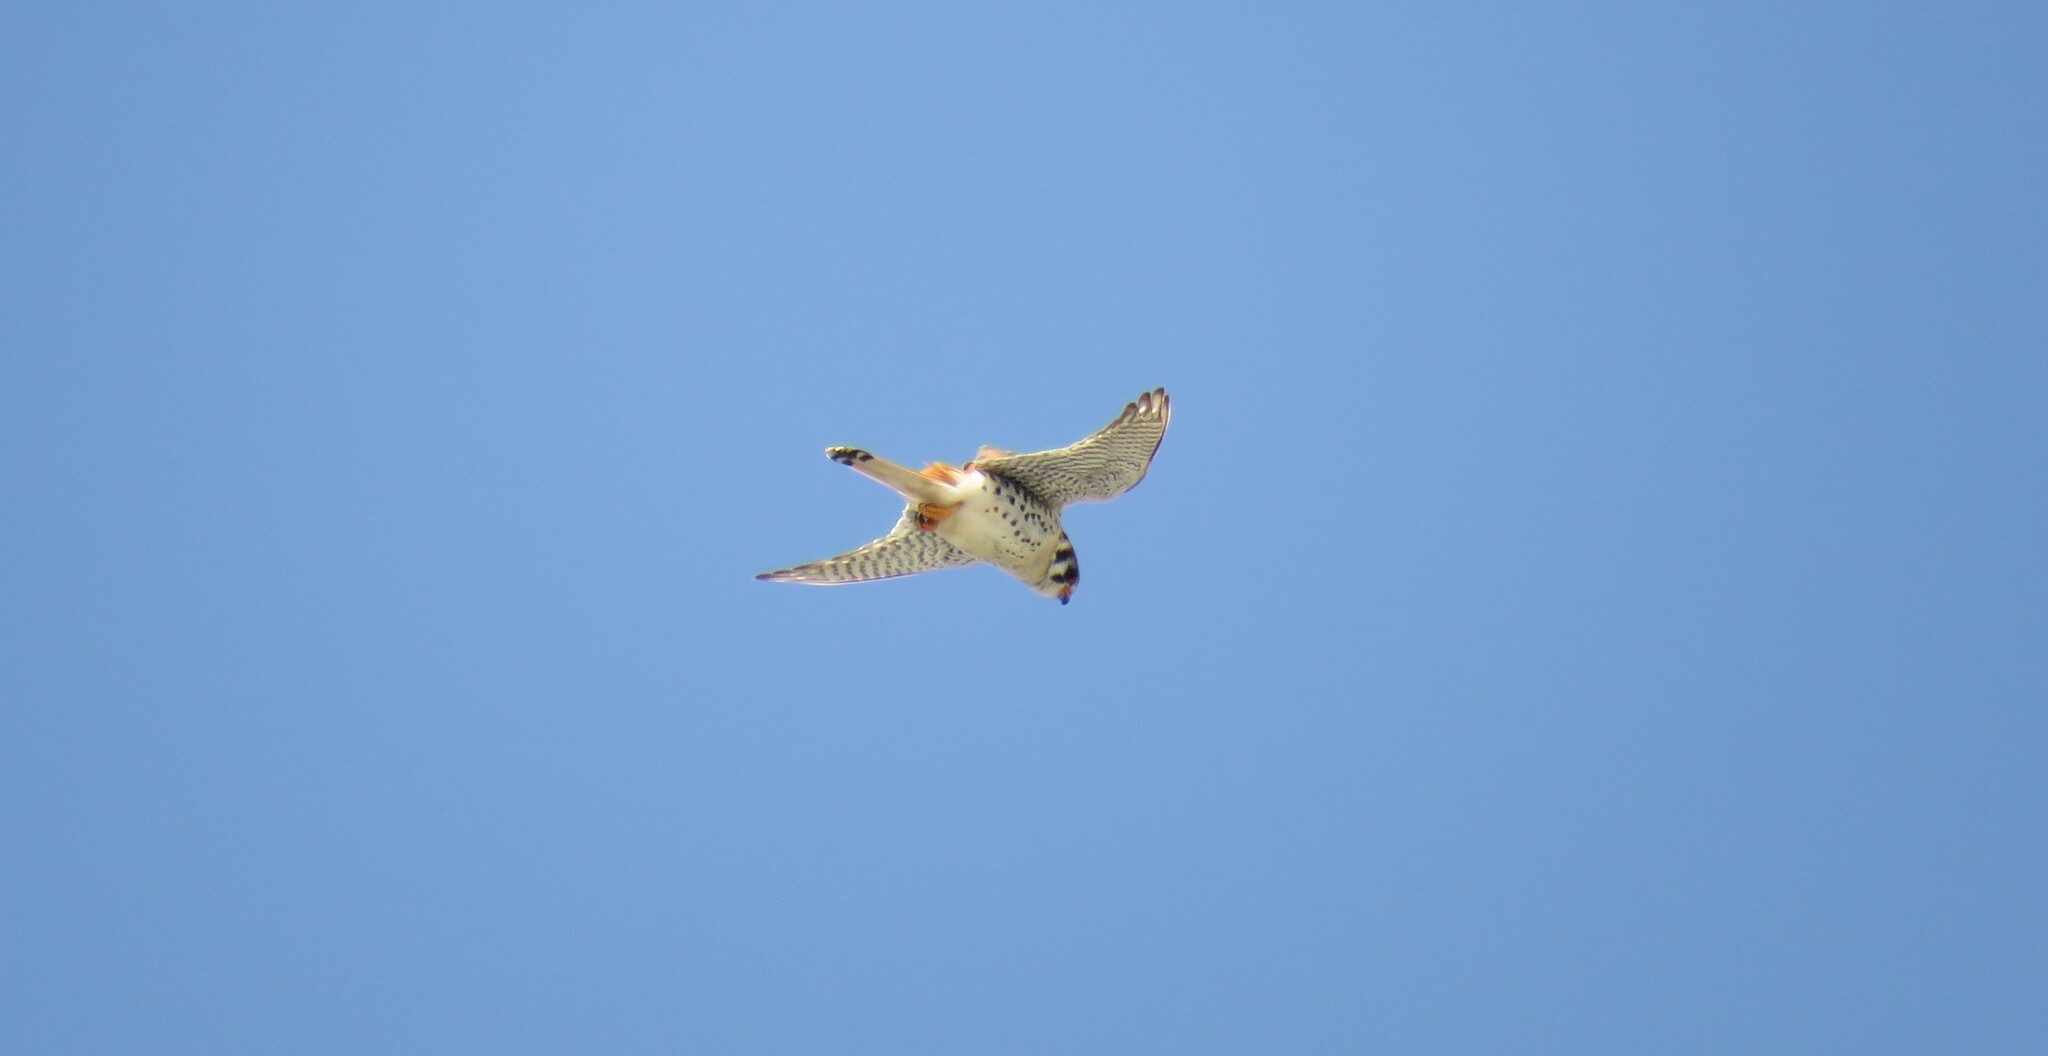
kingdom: Animalia
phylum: Chordata
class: Aves
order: Falconiformes
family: Falconidae
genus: Falco
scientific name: Falco sparverius
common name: American kestrel
